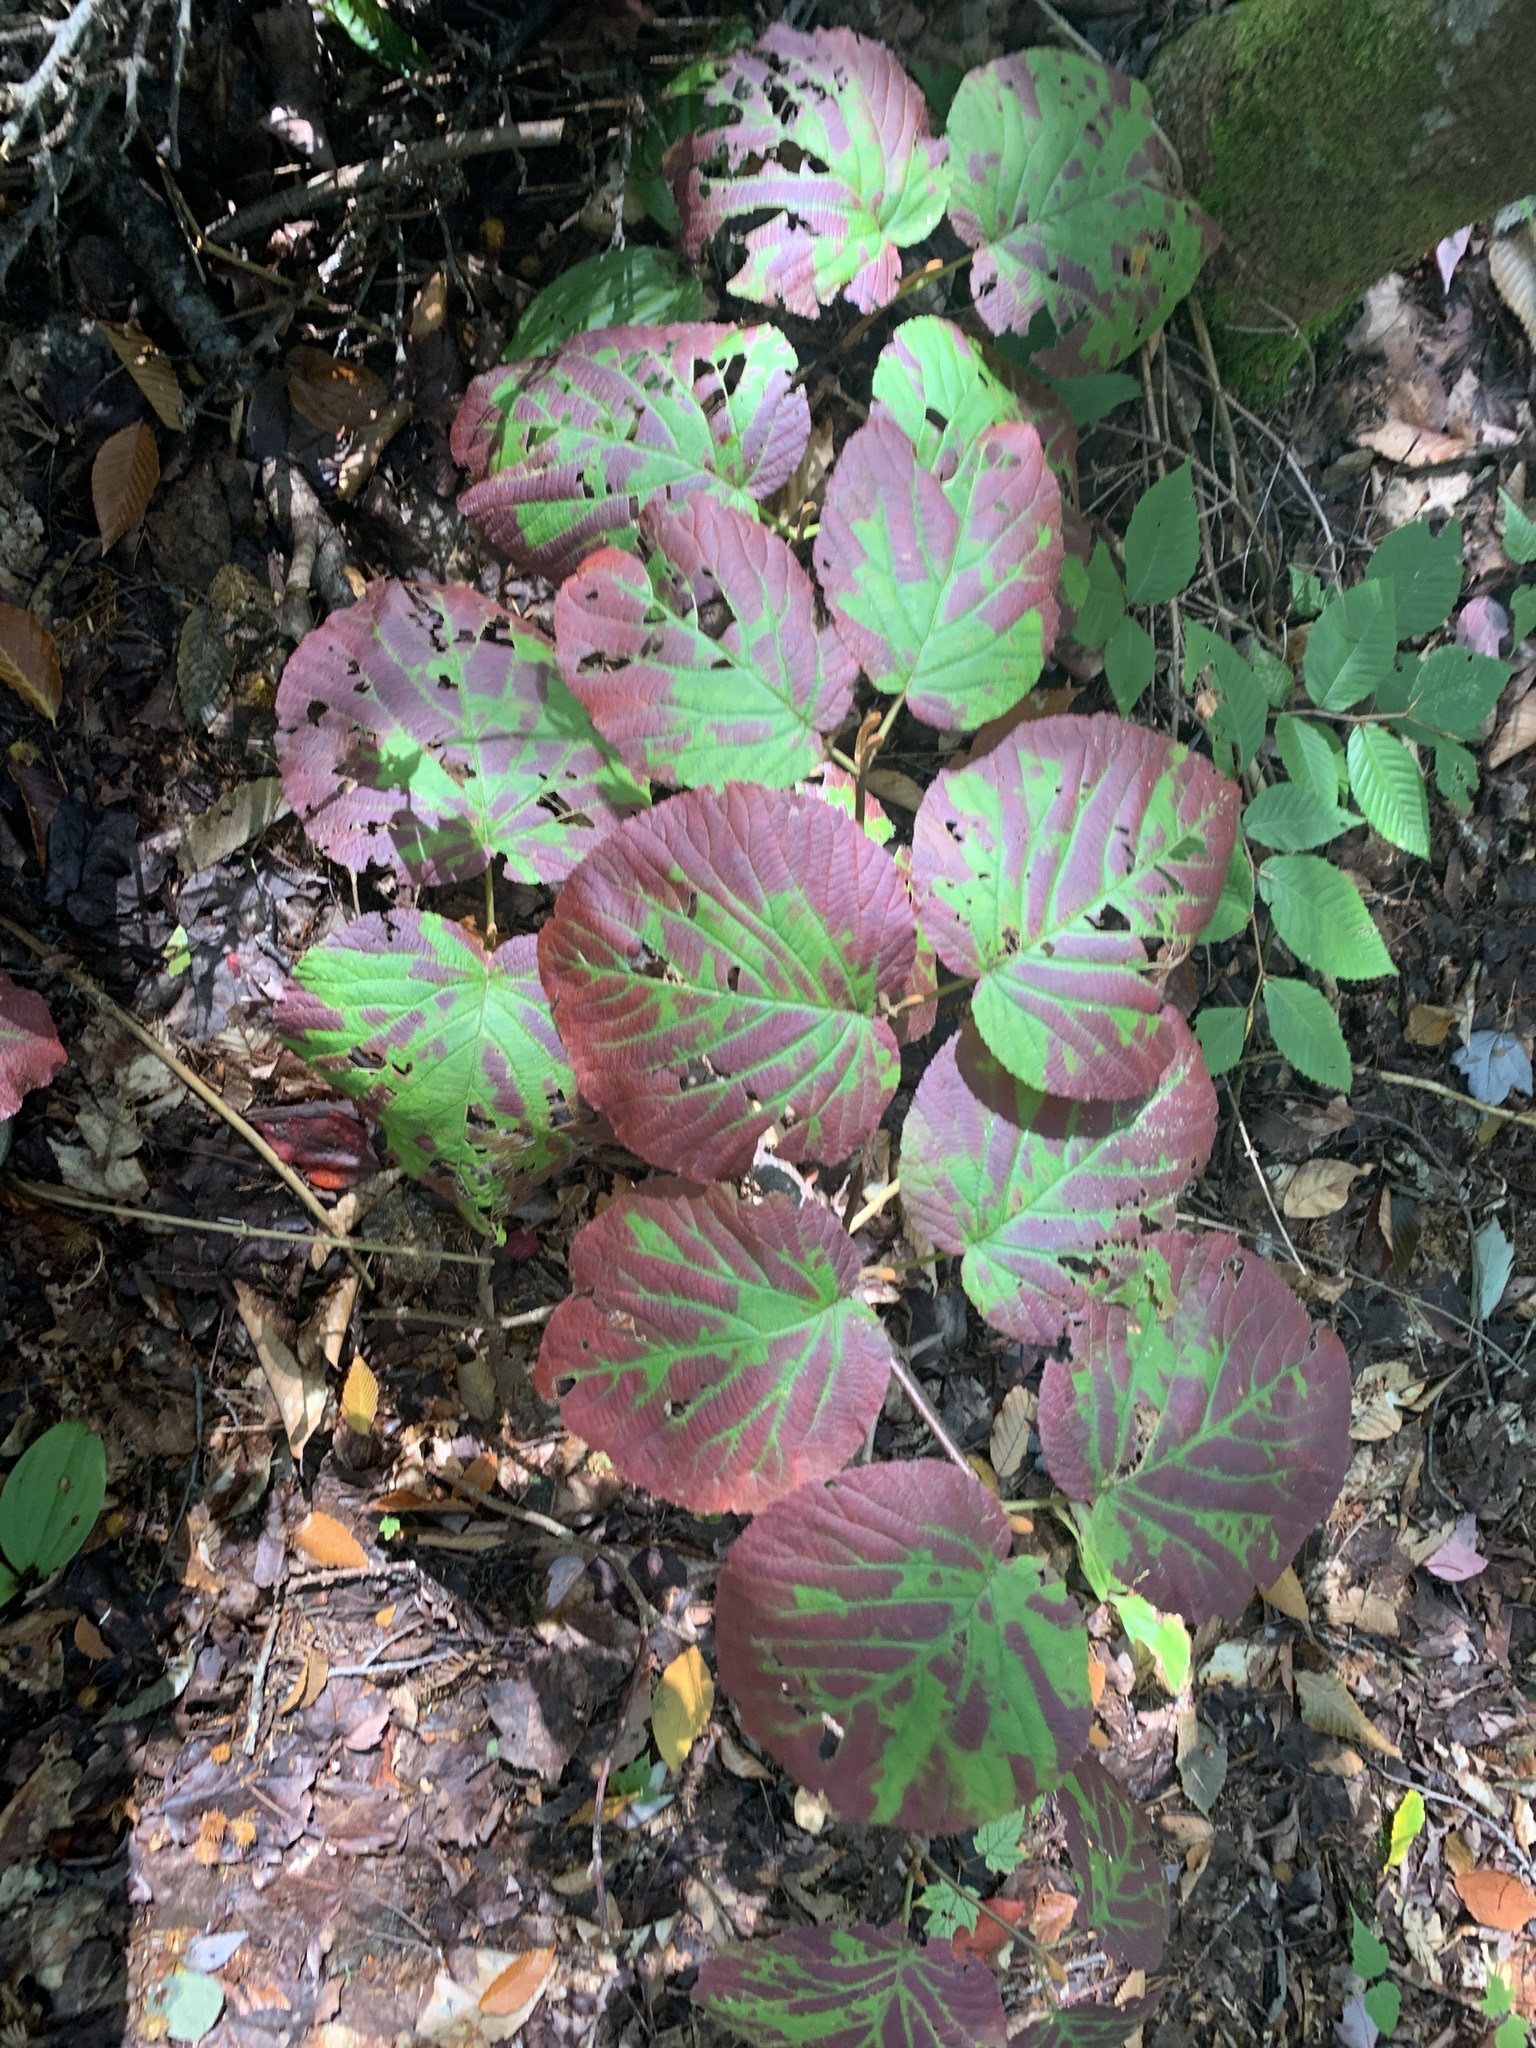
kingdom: Plantae
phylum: Tracheophyta
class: Magnoliopsida
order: Dipsacales
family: Viburnaceae
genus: Viburnum
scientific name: Viburnum lantanoides
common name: Hobblebush
